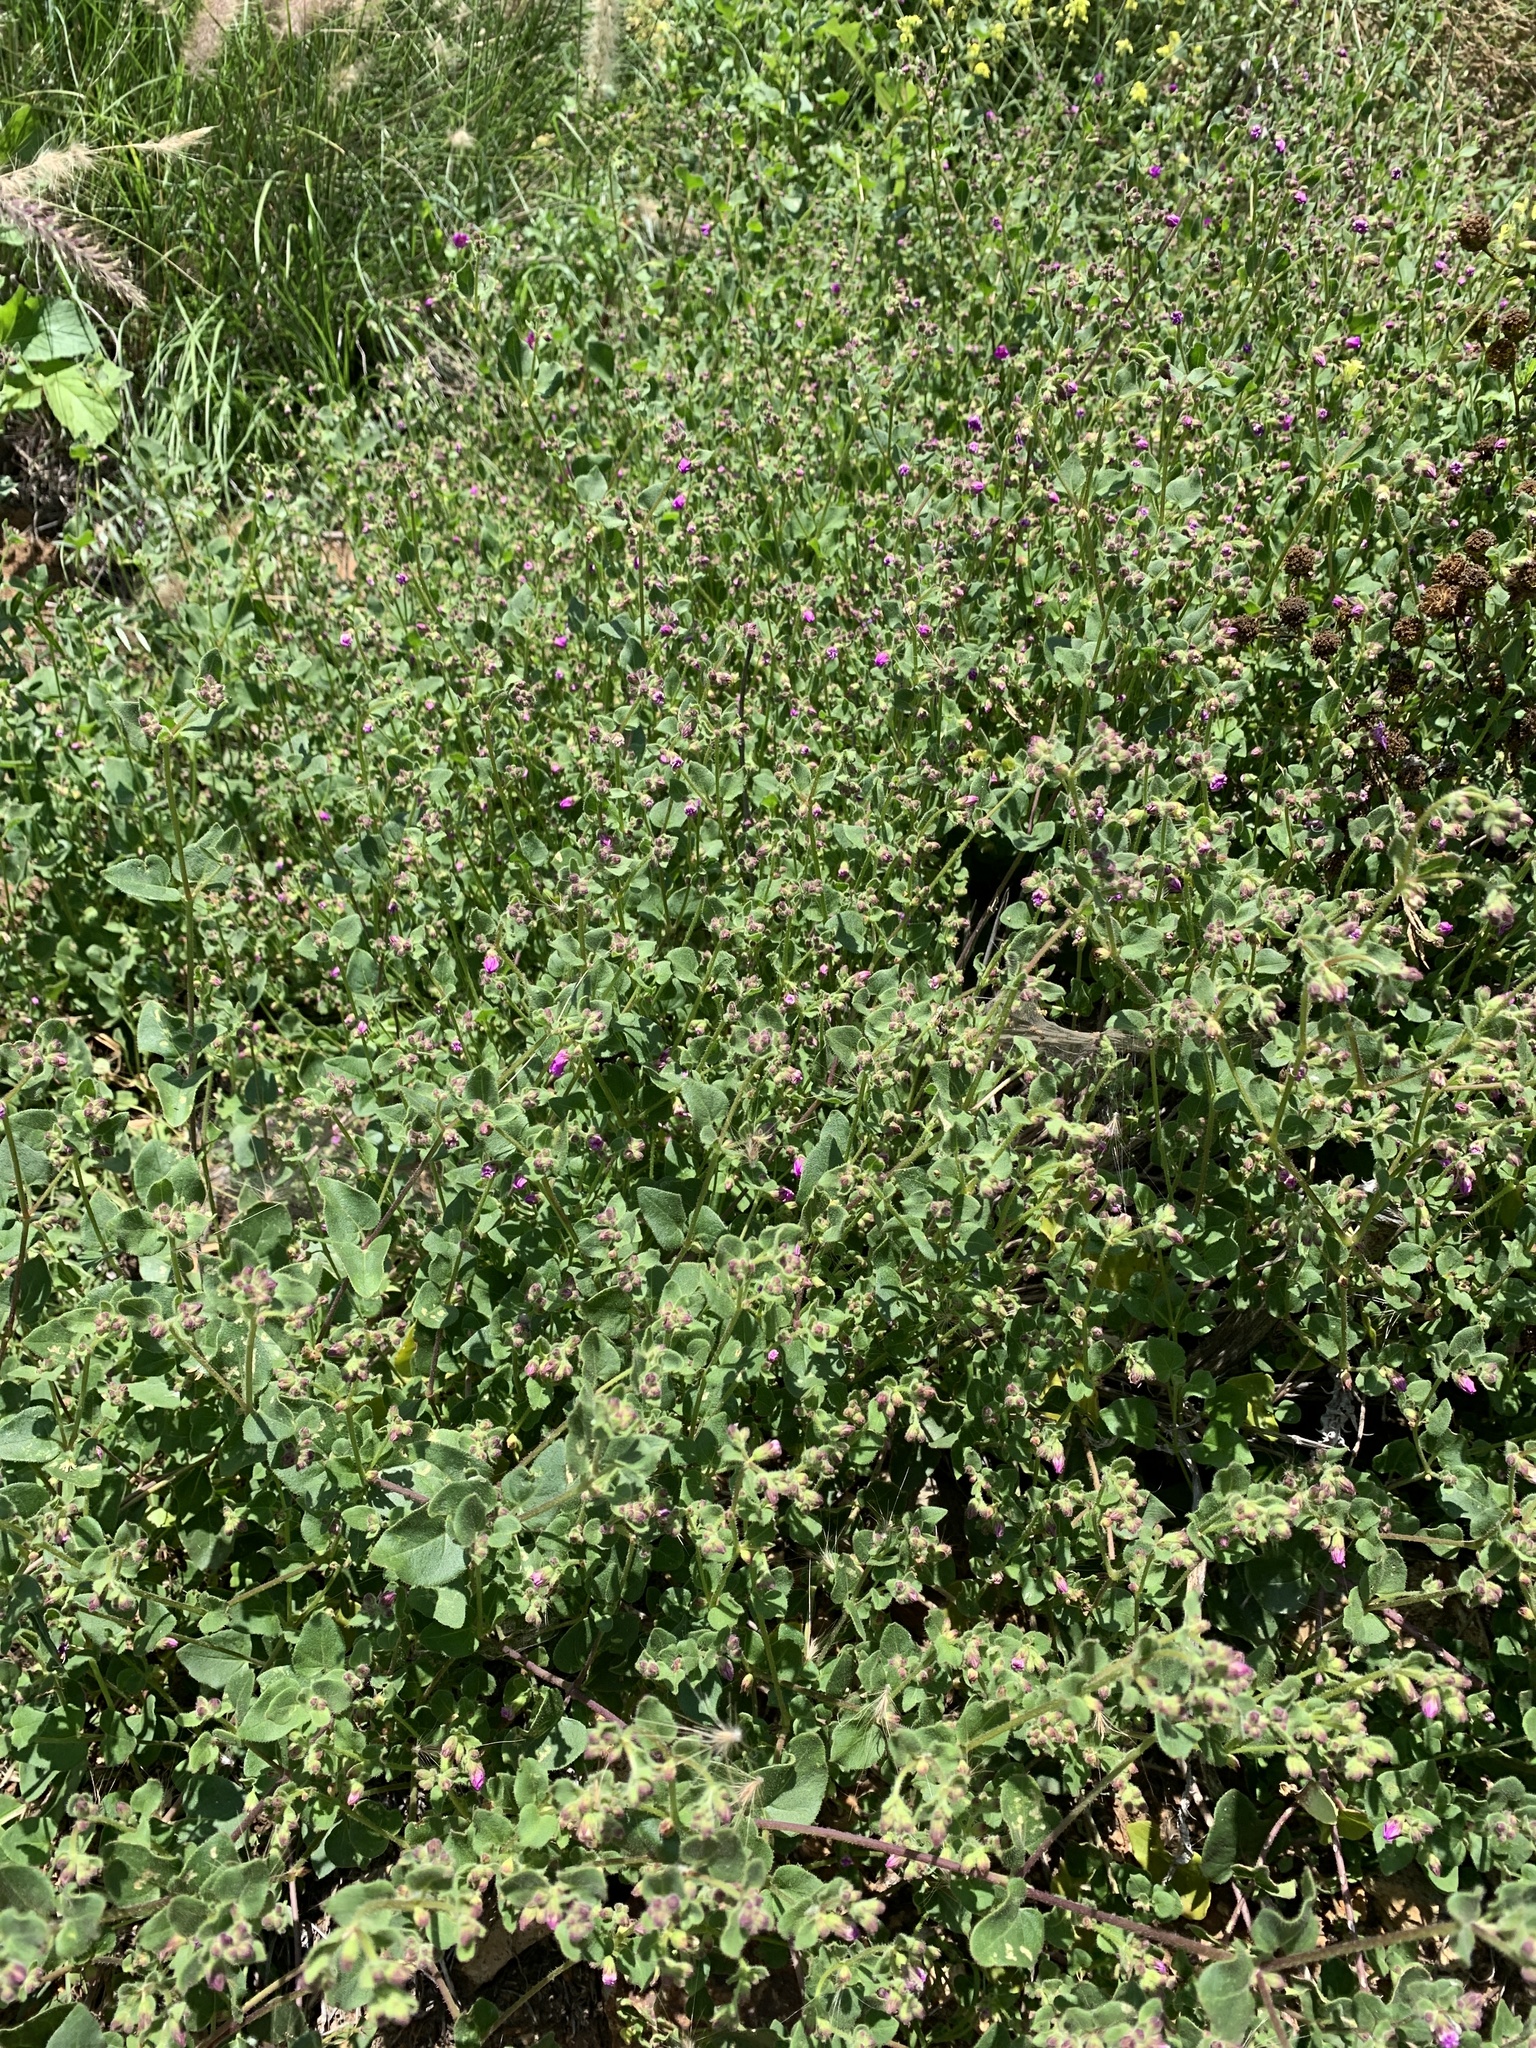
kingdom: Plantae
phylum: Tracheophyta
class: Magnoliopsida
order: Caryophyllales
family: Nyctaginaceae
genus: Mirabilis
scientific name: Mirabilis laevis
